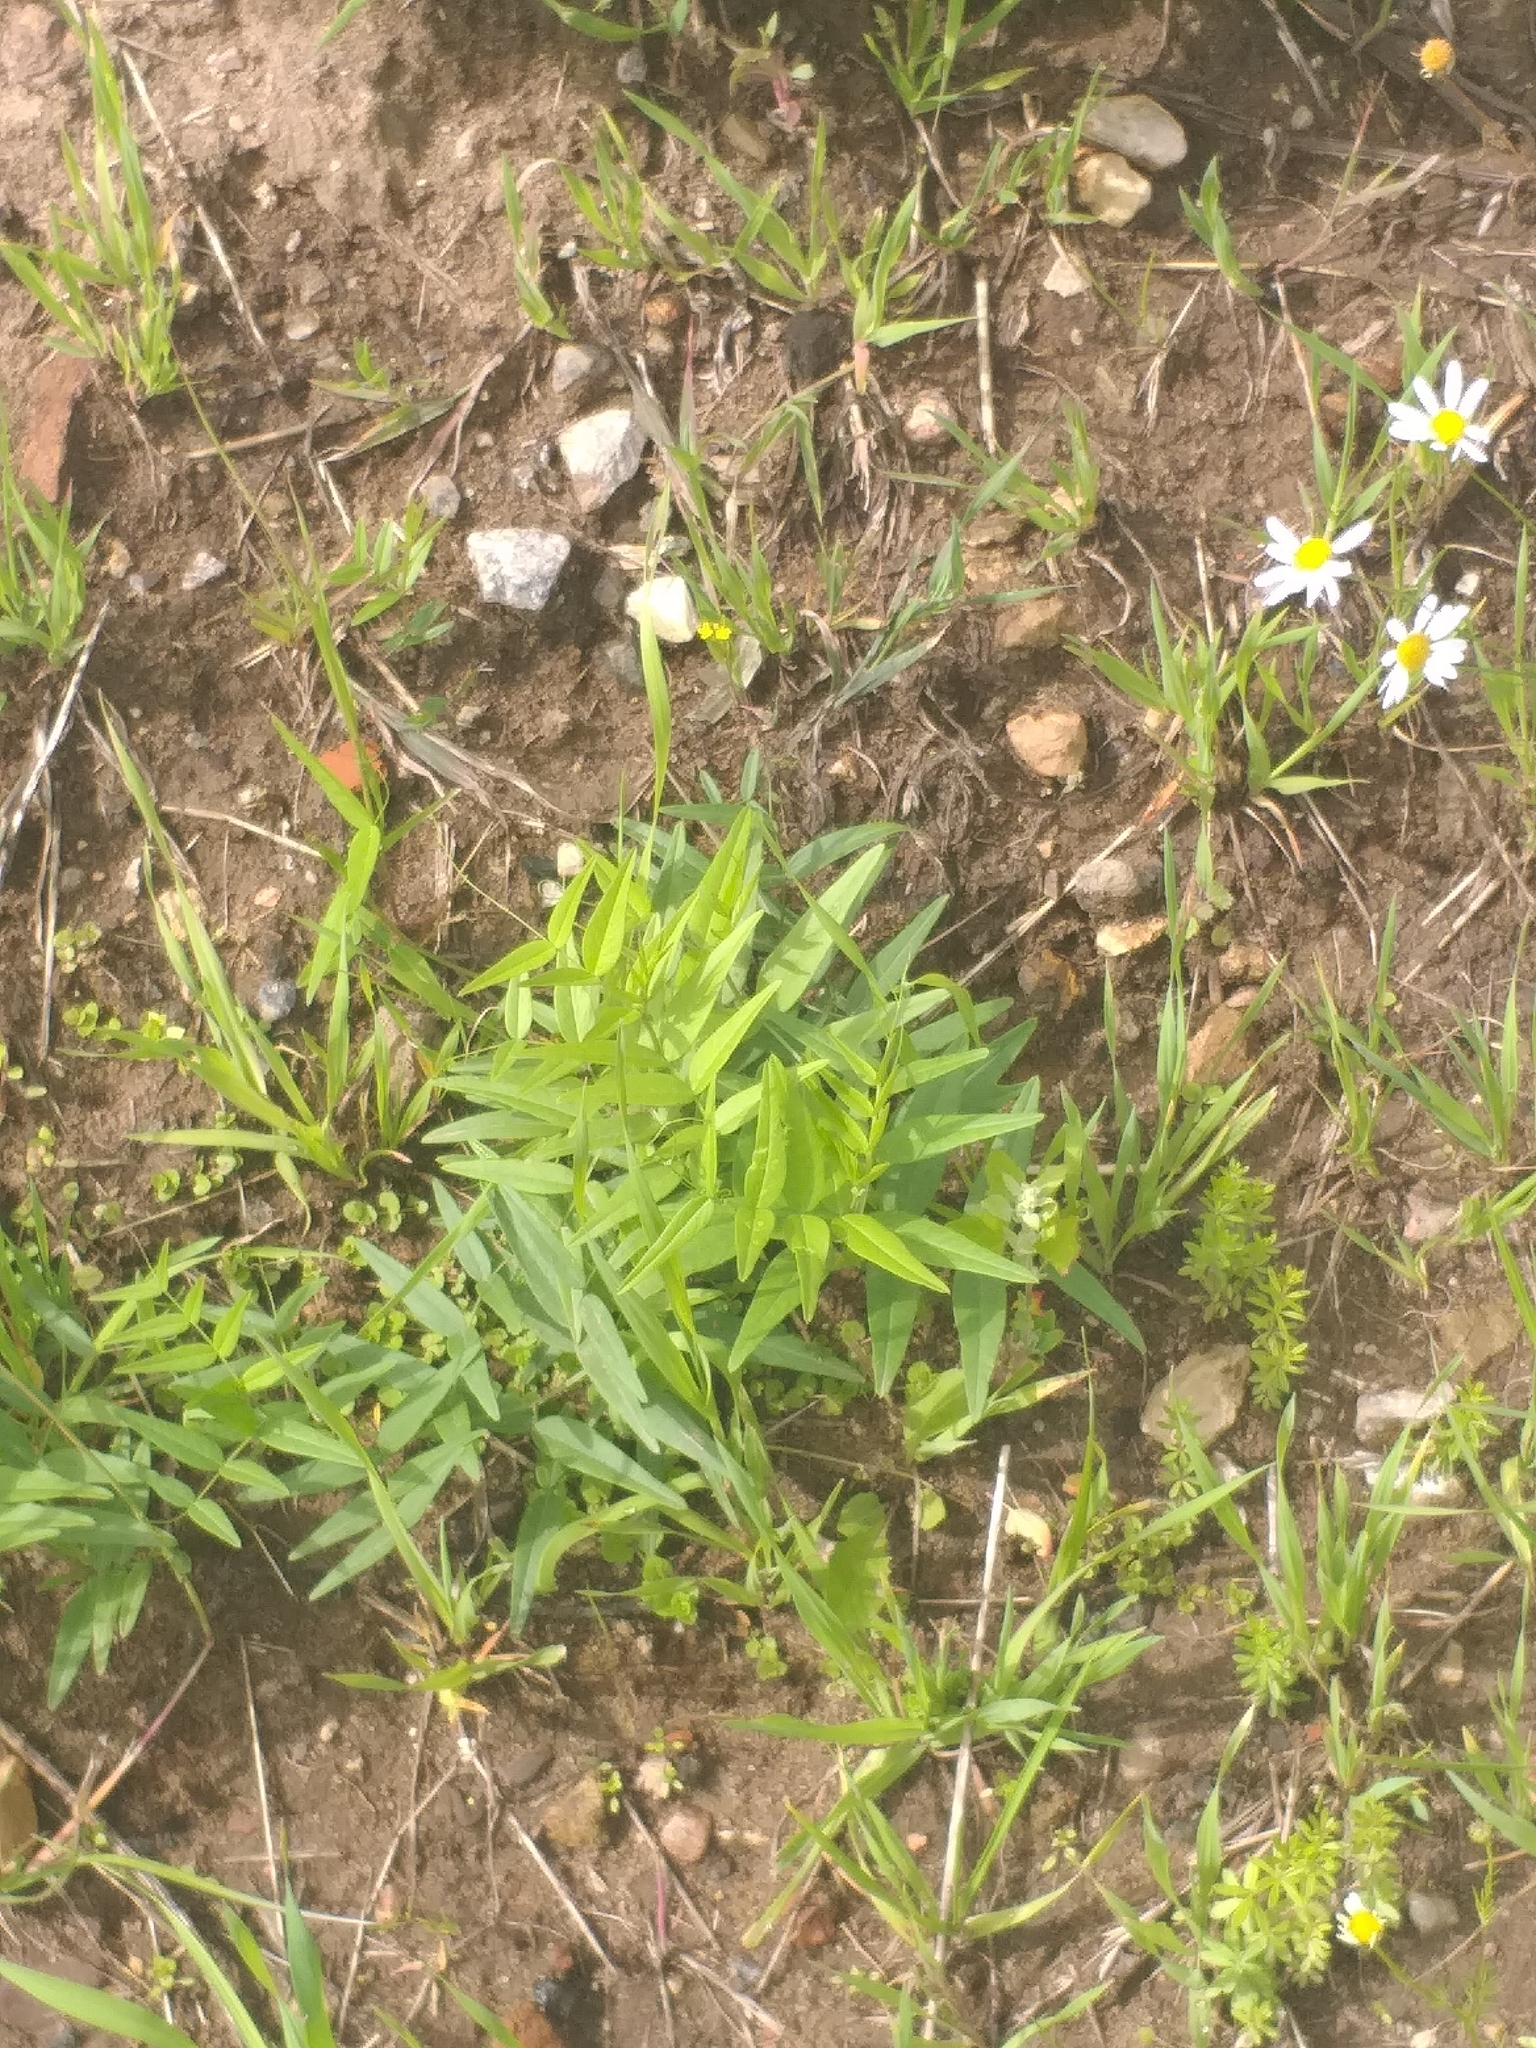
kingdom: Plantae
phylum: Tracheophyta
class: Magnoliopsida
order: Fabales
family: Fabaceae
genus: Vicia
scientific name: Vicia sepium
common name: Bush vetch
